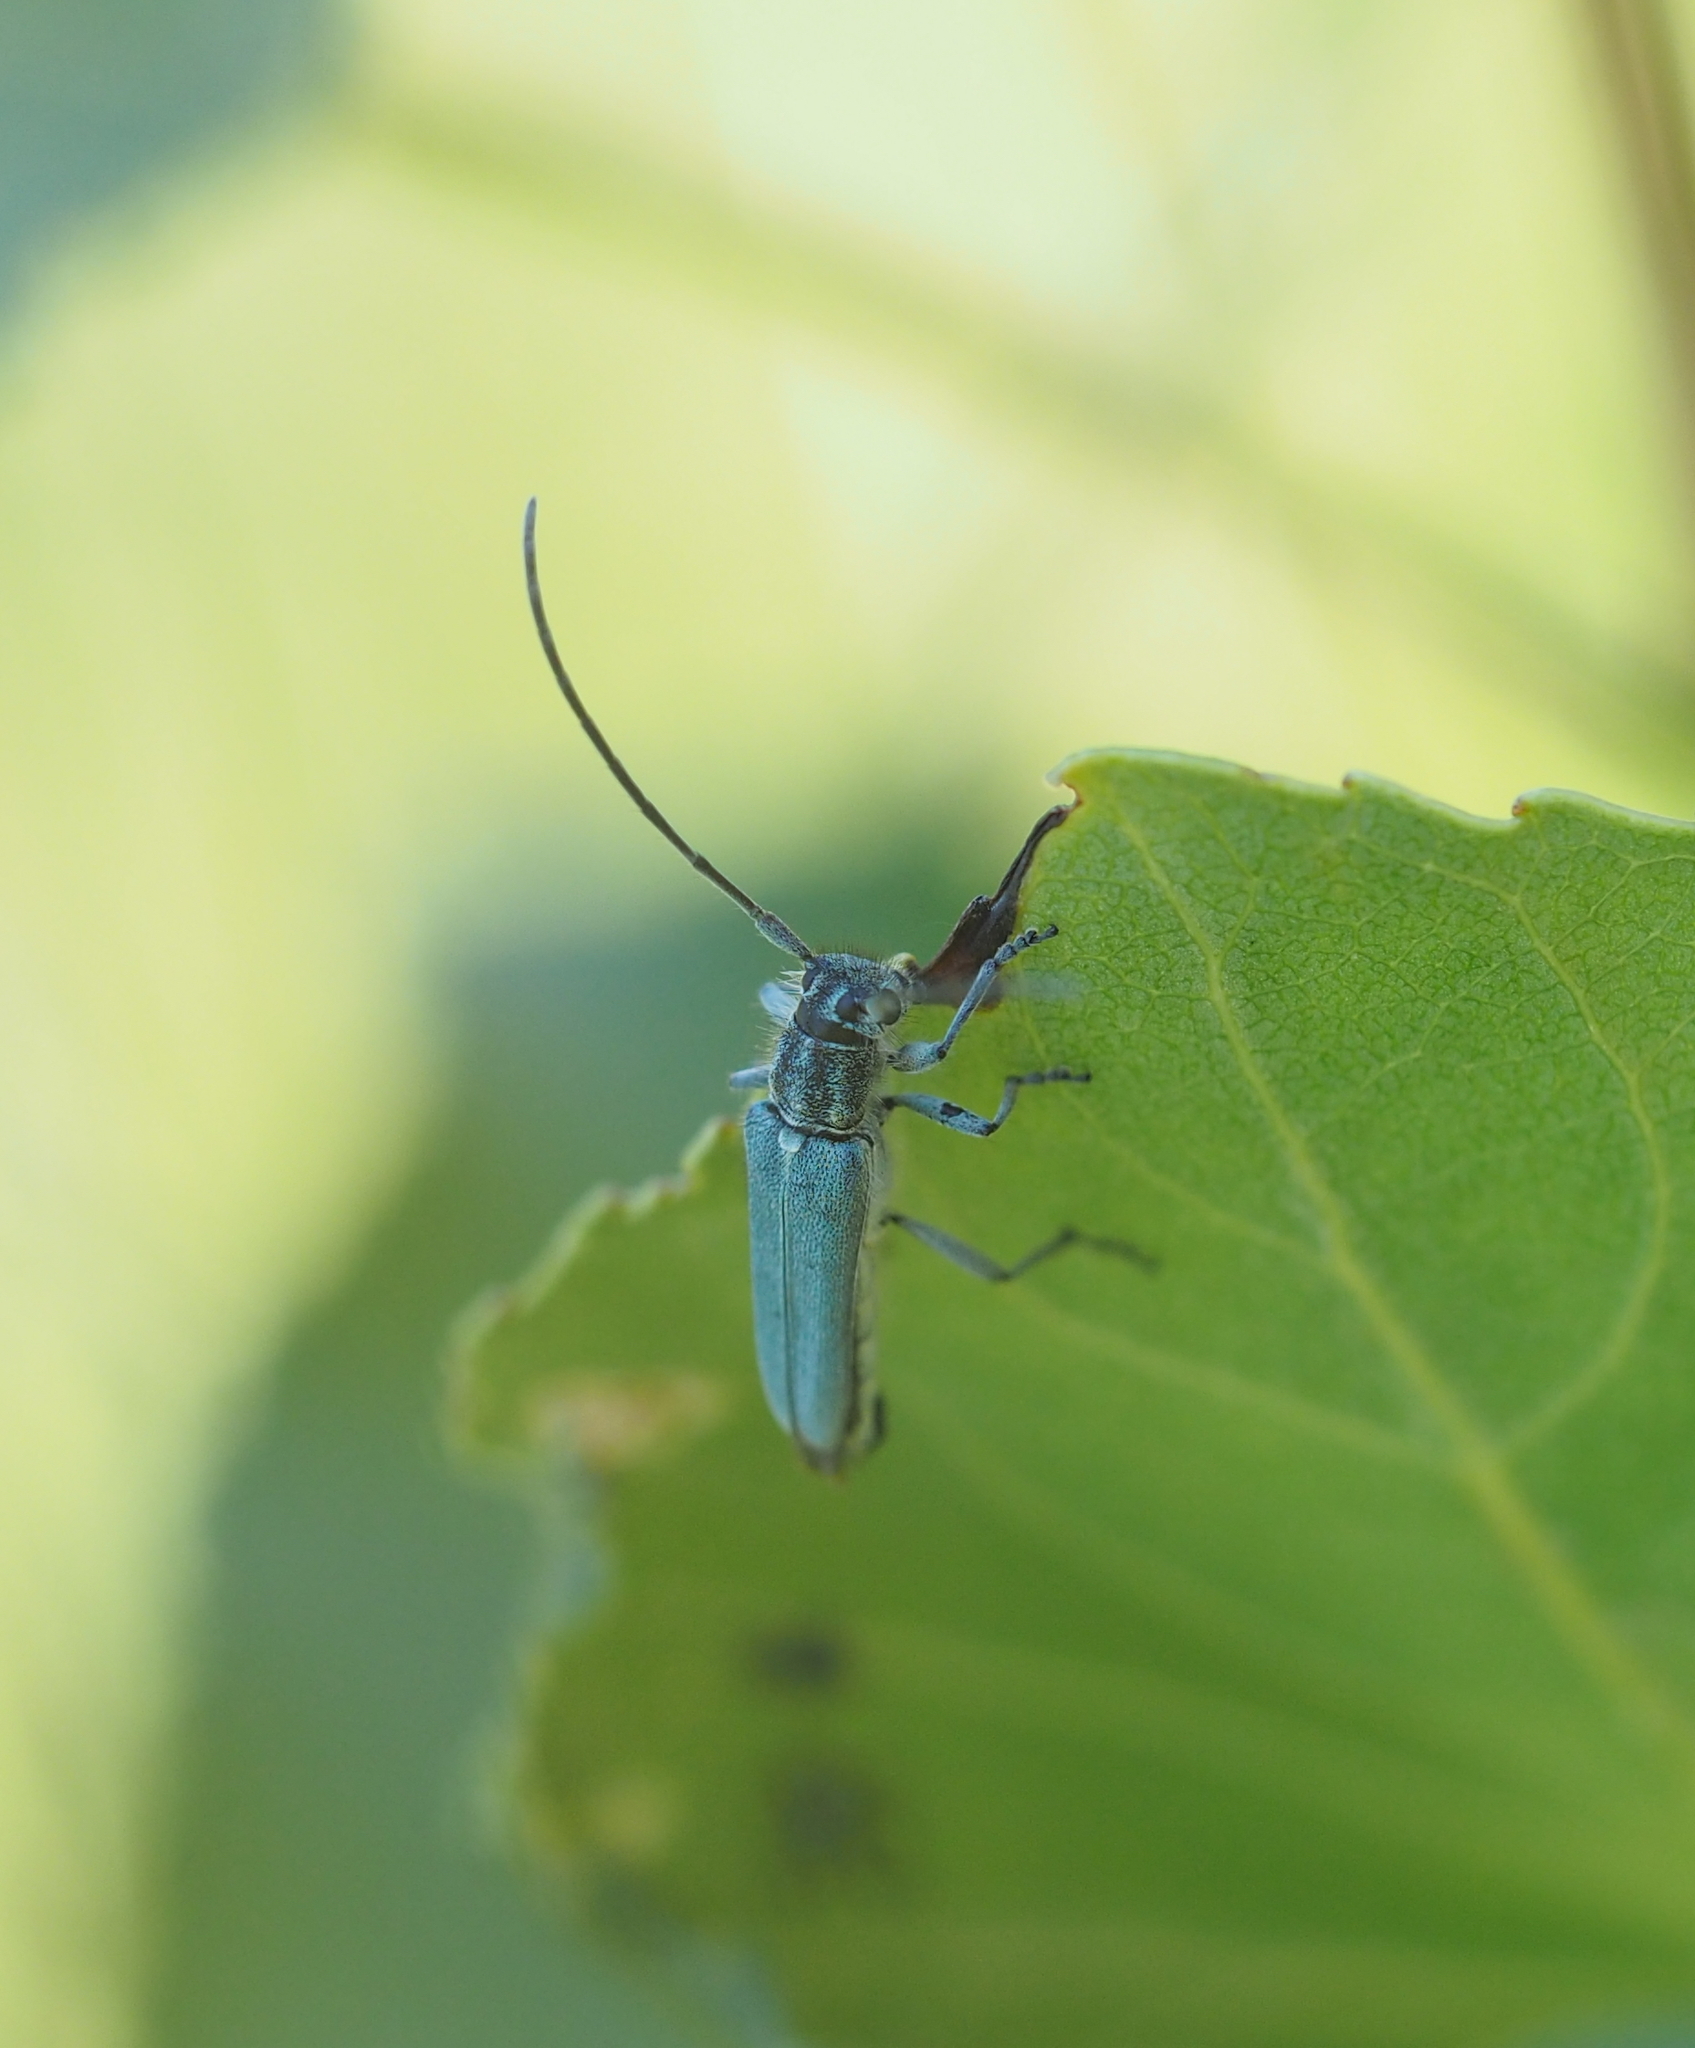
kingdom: Animalia
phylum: Arthropoda
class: Insecta
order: Coleoptera
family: Cerambycidae
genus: Phytoecia
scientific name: Phytoecia coerulescens
